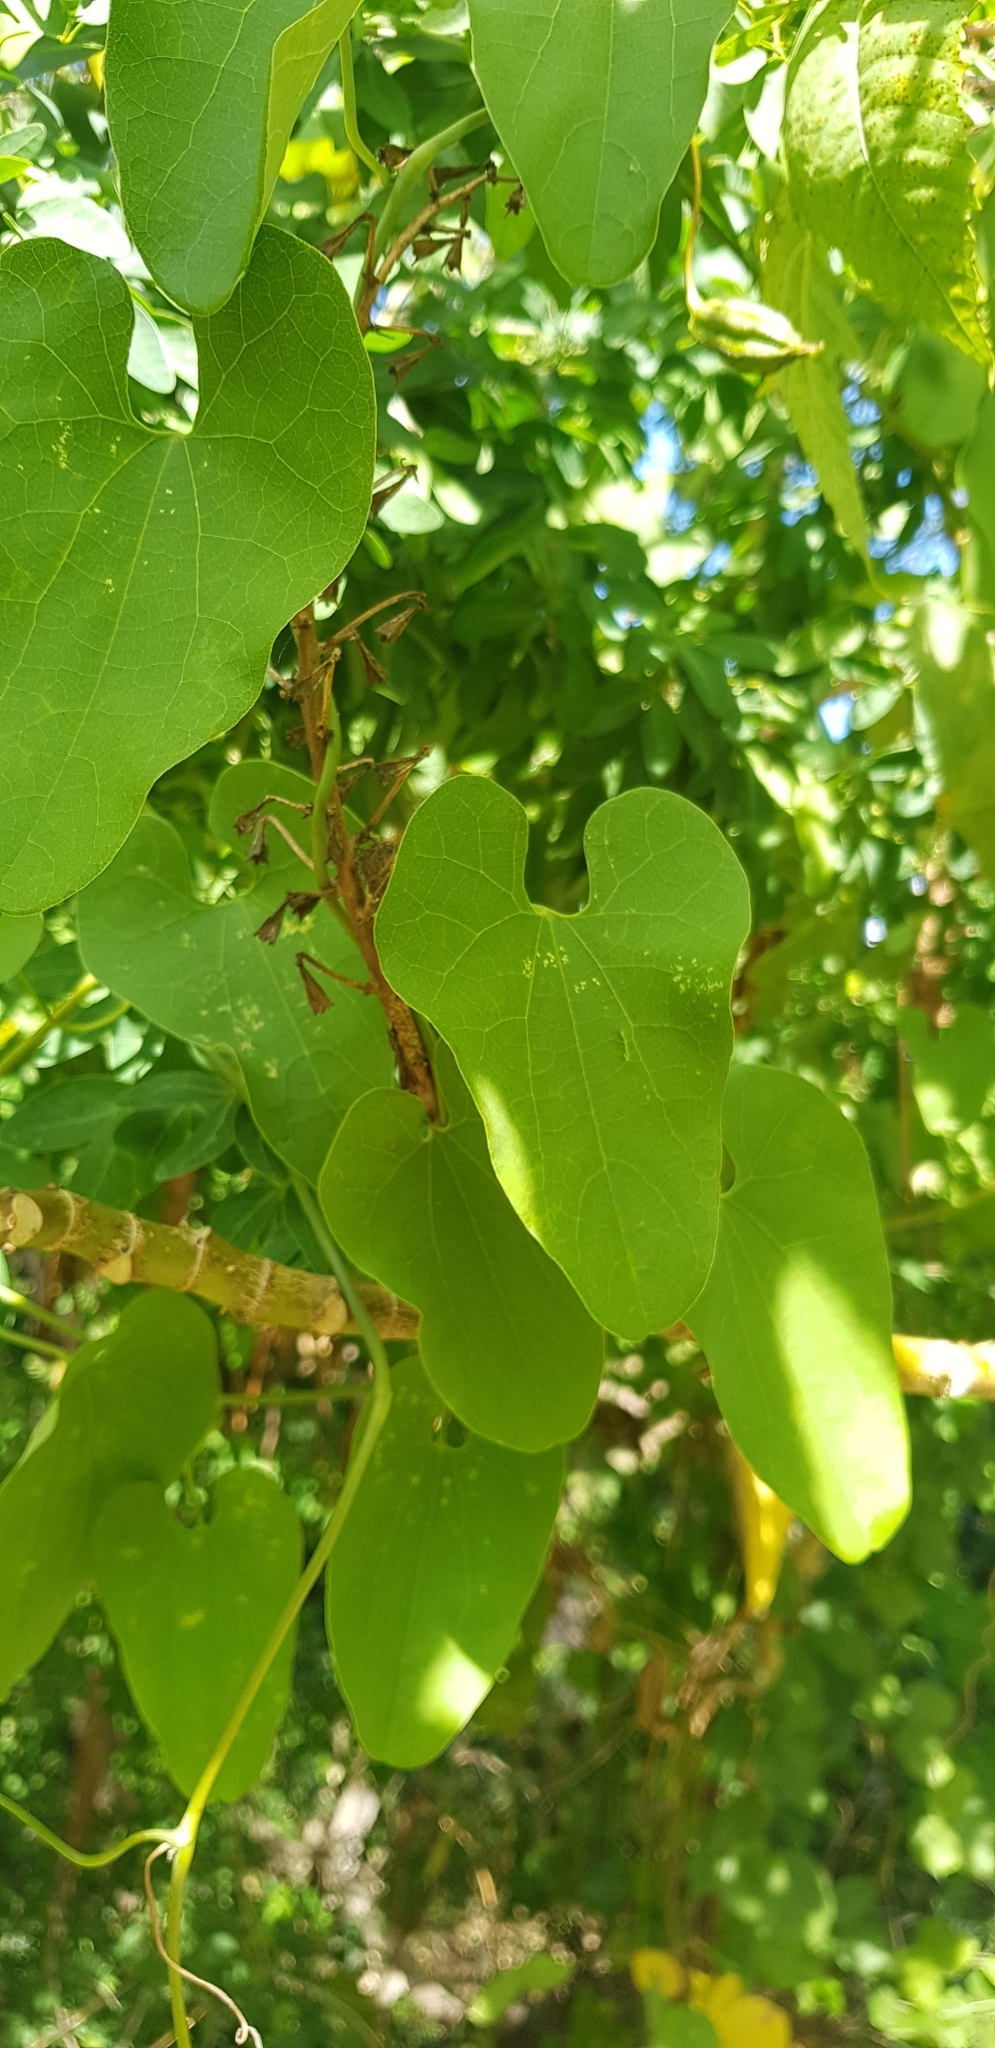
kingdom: Plantae
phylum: Tracheophyta
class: Magnoliopsida
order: Piperales
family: Aristolochiaceae
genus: Aristolochia
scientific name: Aristolochia carterae
